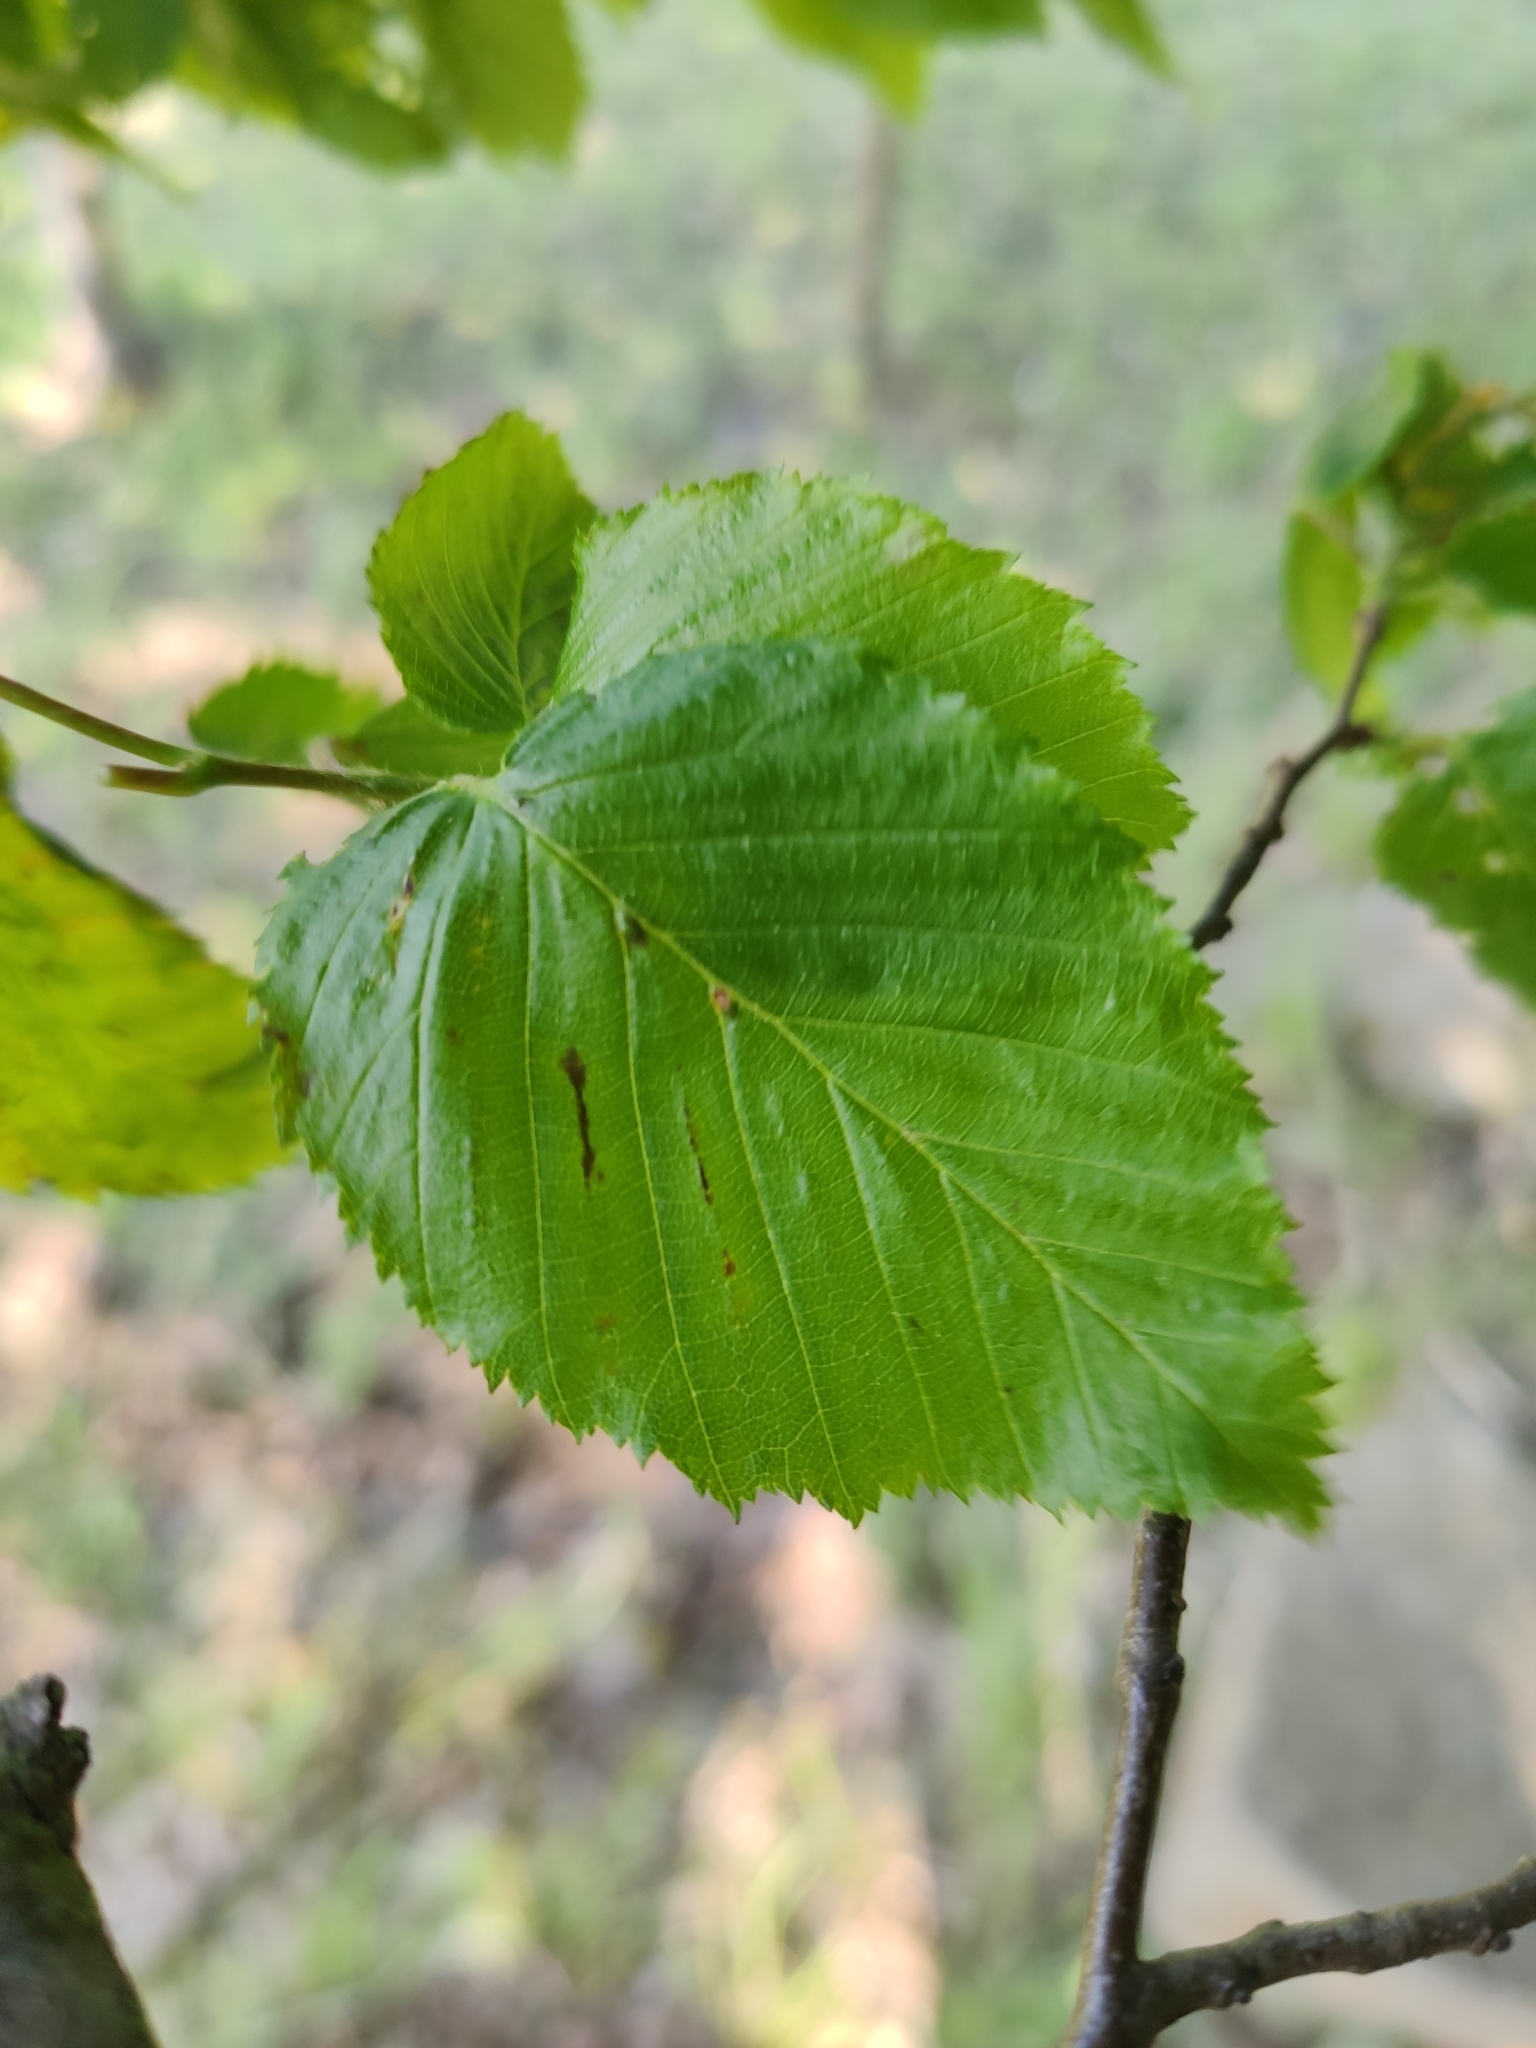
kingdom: Plantae
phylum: Tracheophyta
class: Magnoliopsida
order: Fagales
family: Betulaceae
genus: Carpinus
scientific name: Carpinus betulus
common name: Hornbeam
